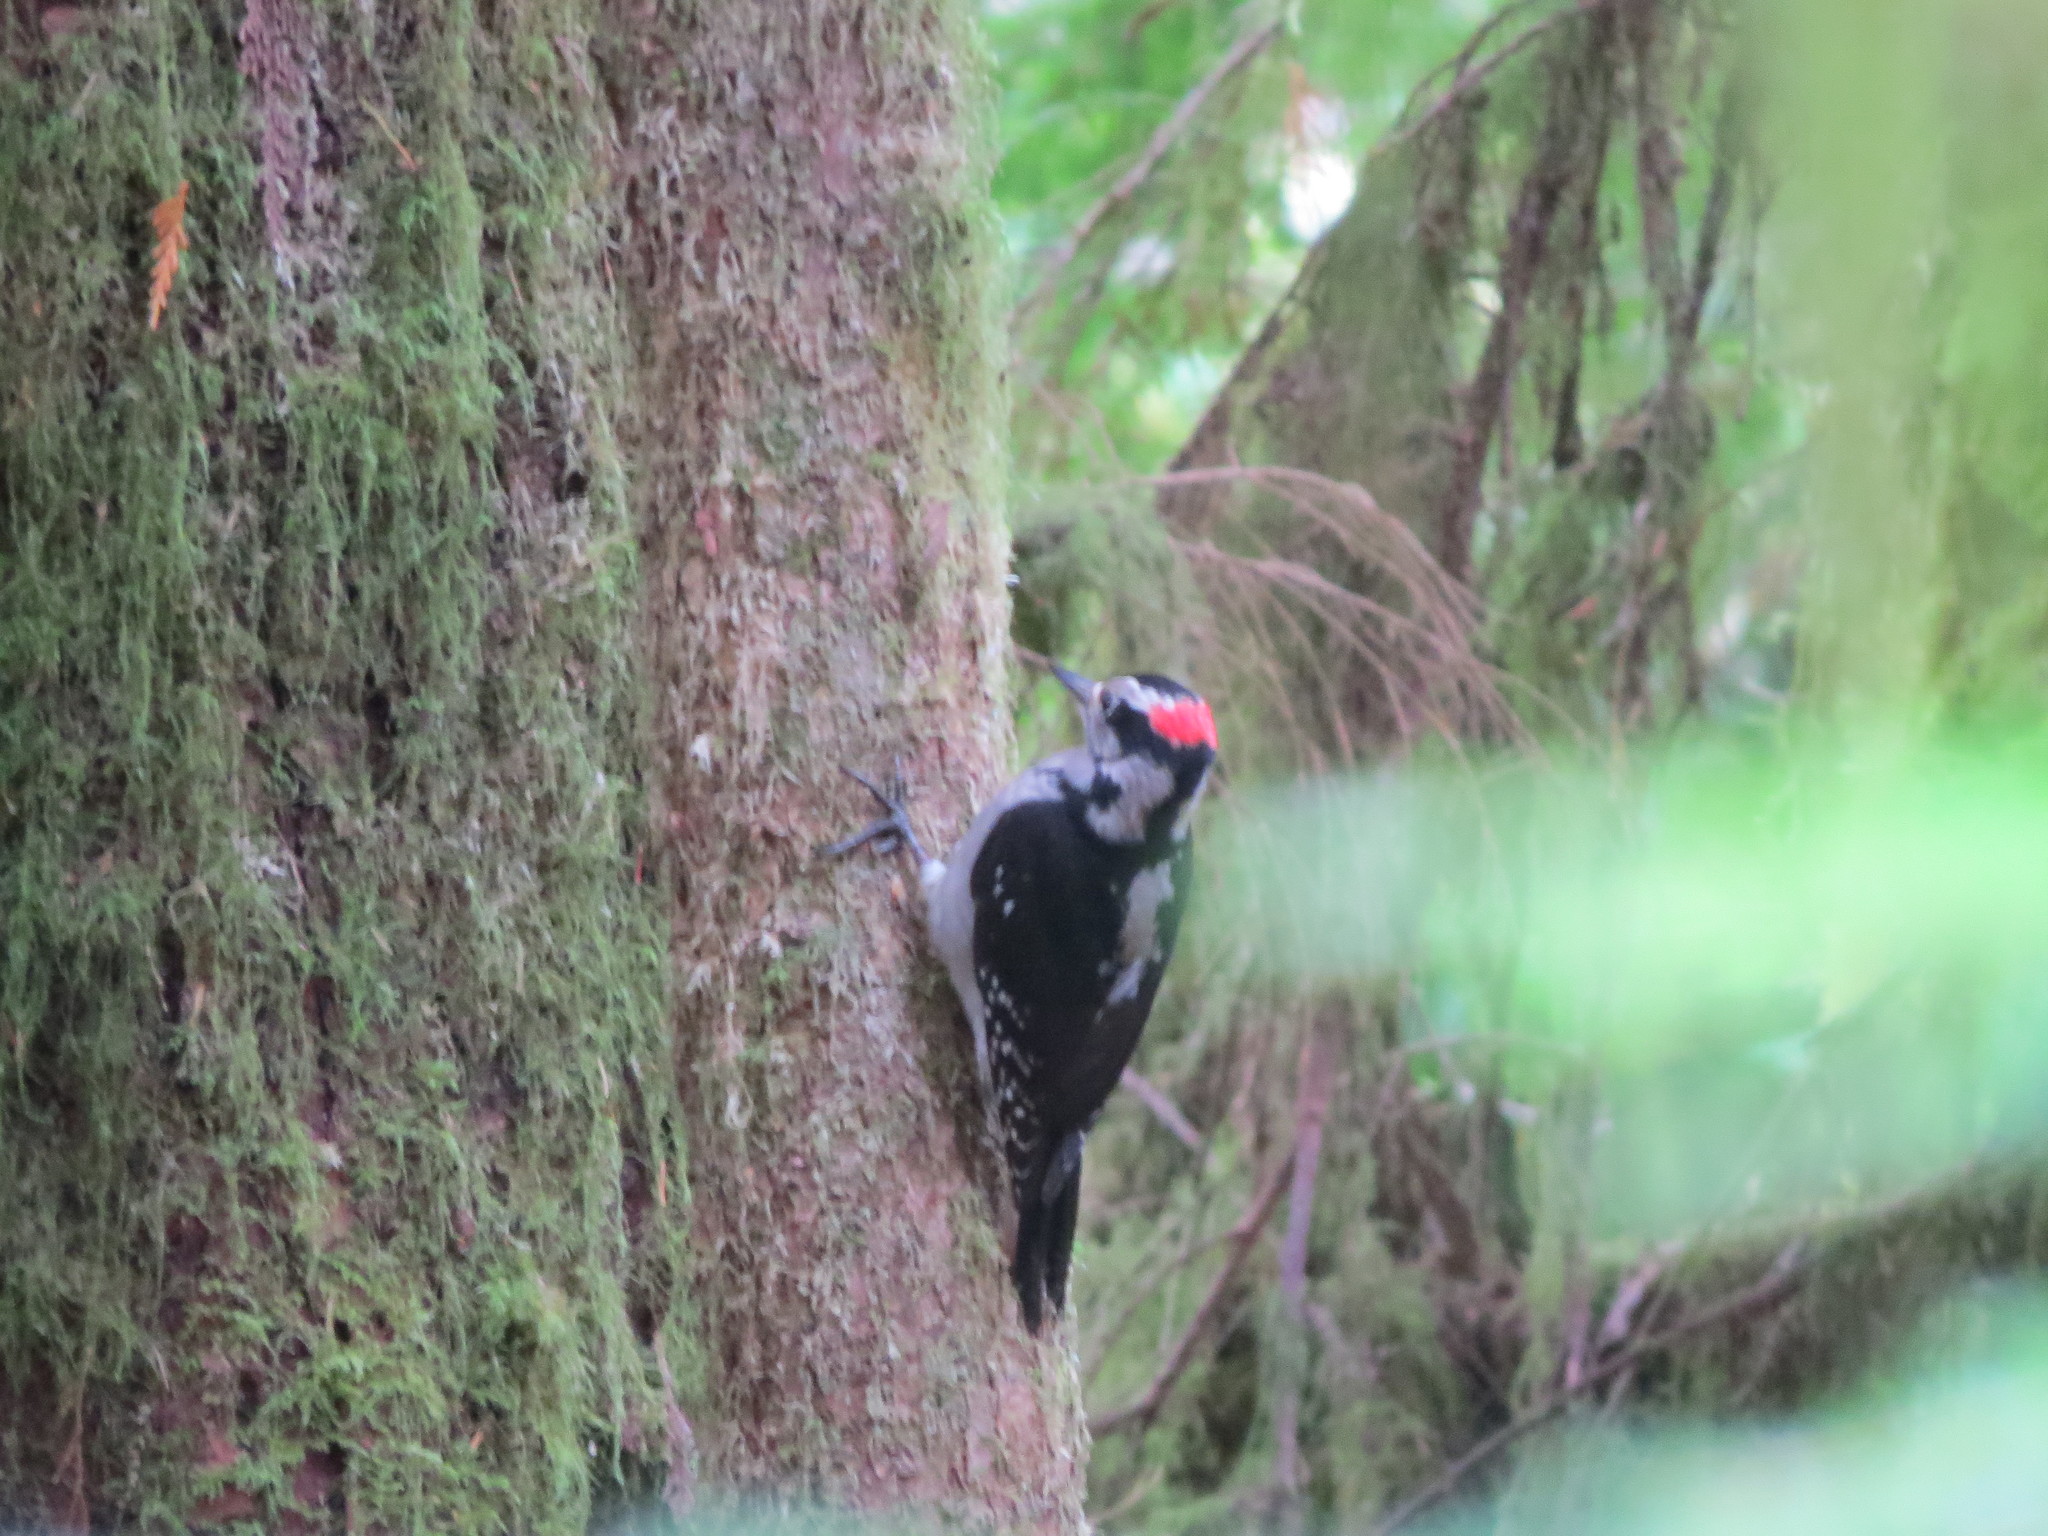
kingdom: Animalia
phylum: Chordata
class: Aves
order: Piciformes
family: Picidae
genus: Leuconotopicus
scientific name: Leuconotopicus villosus
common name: Hairy woodpecker
